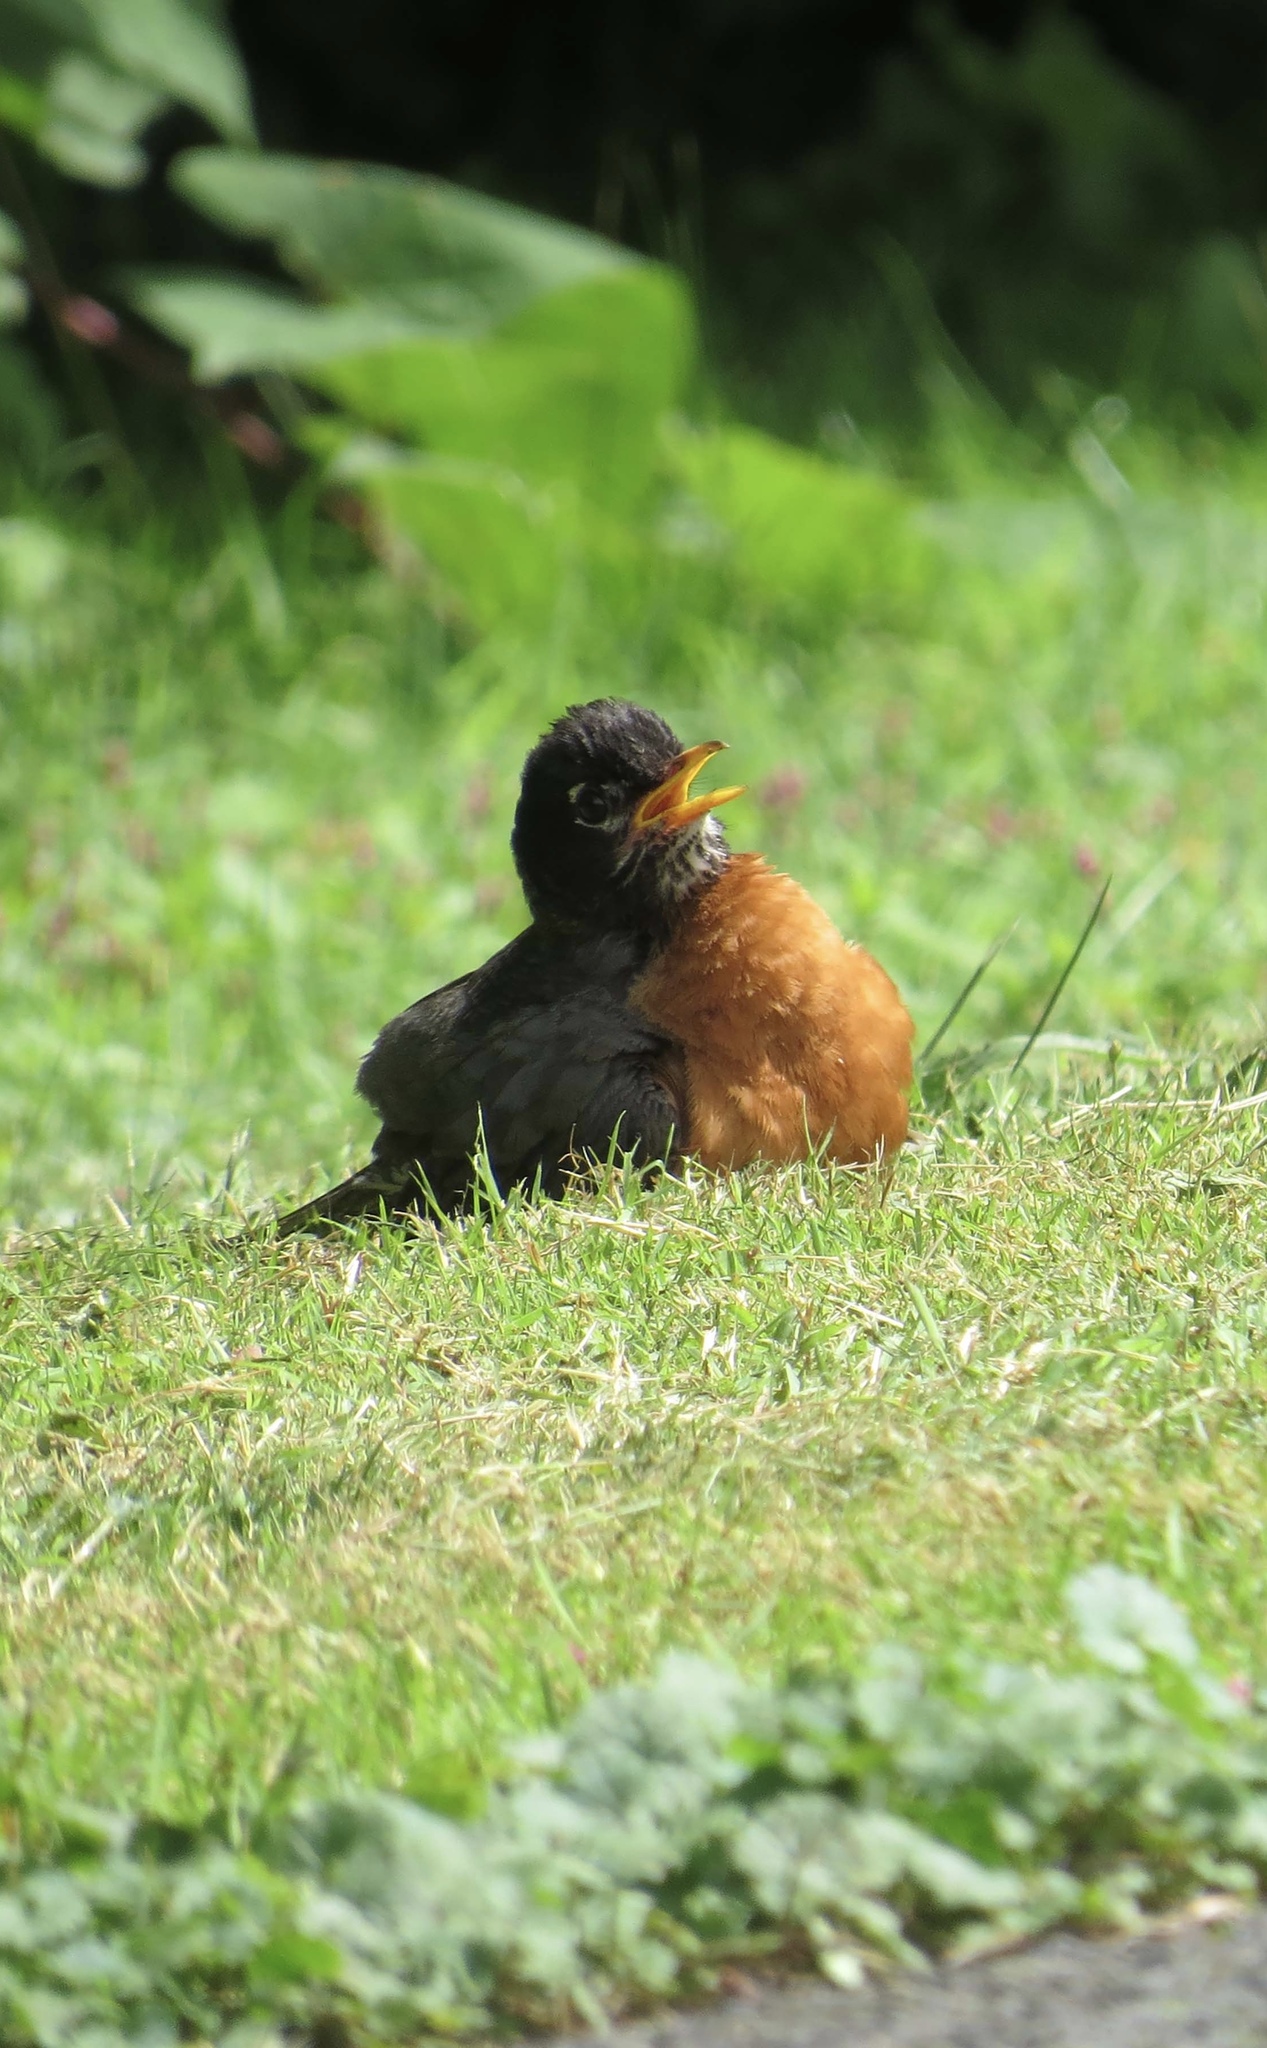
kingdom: Animalia
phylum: Chordata
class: Aves
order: Passeriformes
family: Turdidae
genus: Turdus
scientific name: Turdus migratorius
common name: American robin
